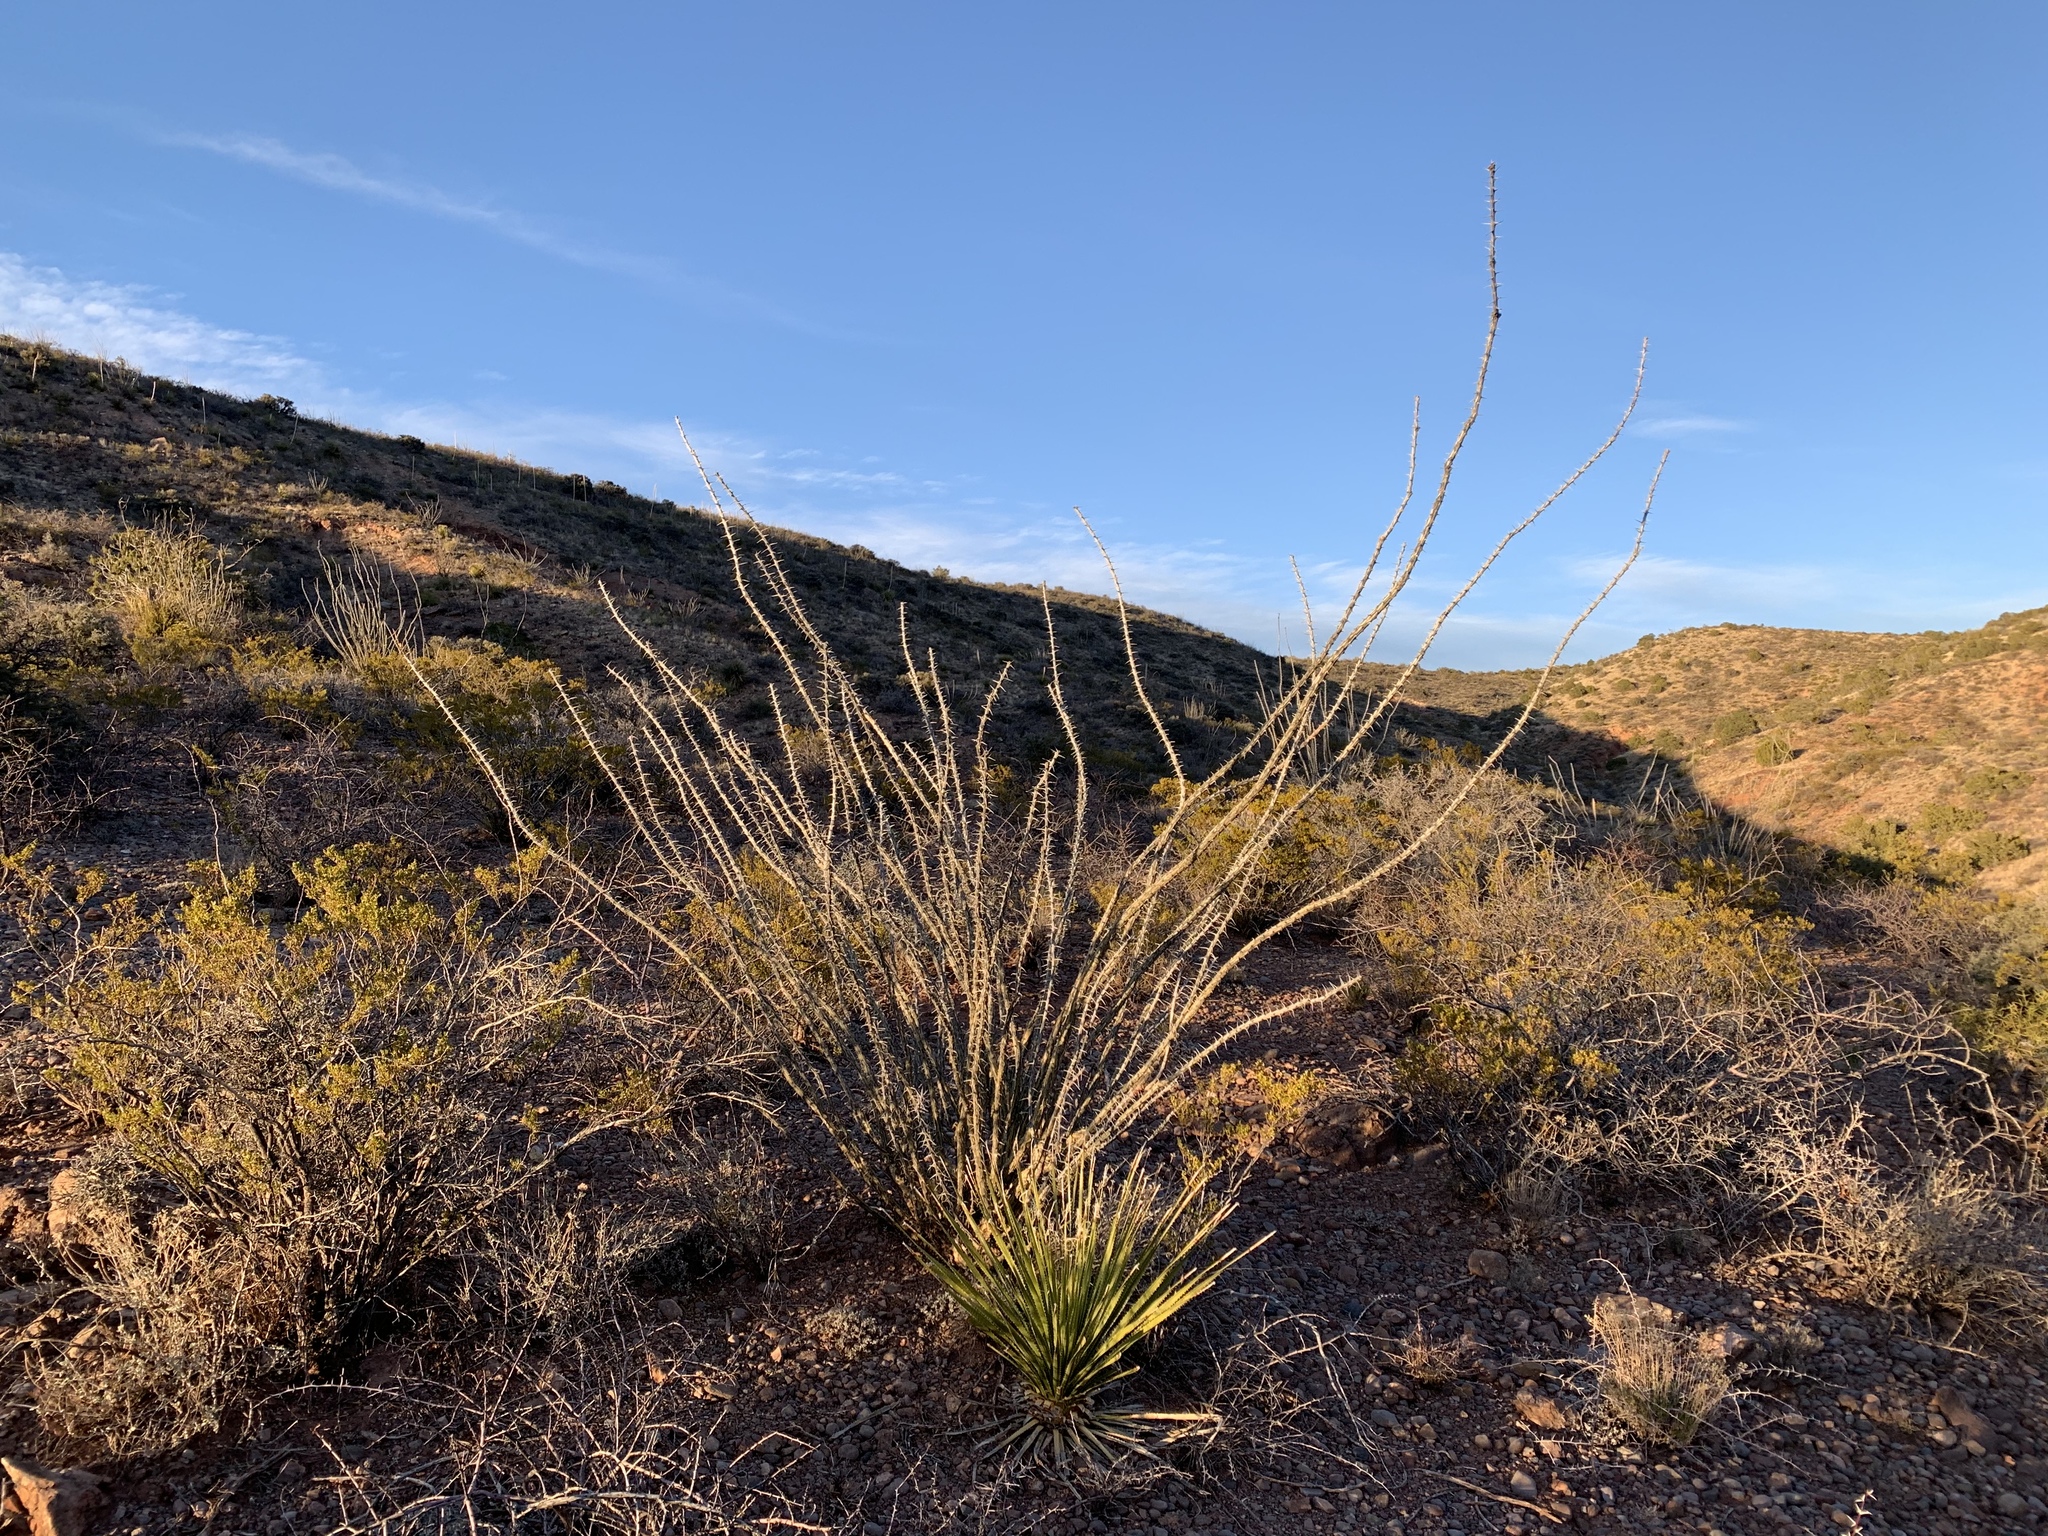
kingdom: Plantae
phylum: Tracheophyta
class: Magnoliopsida
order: Ericales
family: Fouquieriaceae
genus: Fouquieria
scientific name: Fouquieria splendens
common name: Vine-cactus
